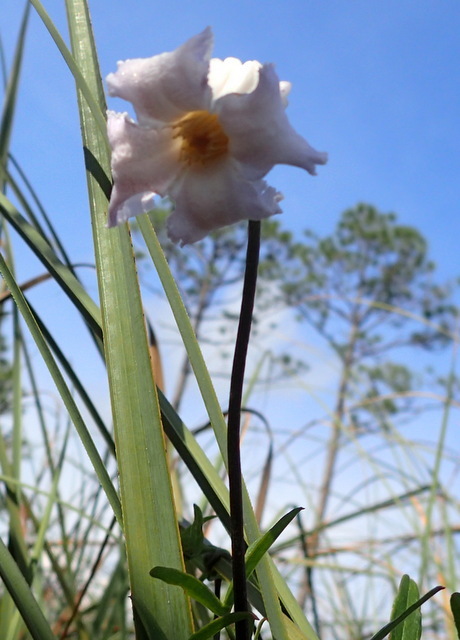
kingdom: Plantae
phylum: Tracheophyta
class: Magnoliopsida
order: Ranunculales
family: Ranunculaceae
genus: Clematis
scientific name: Clematis crispa
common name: Curly clematis
